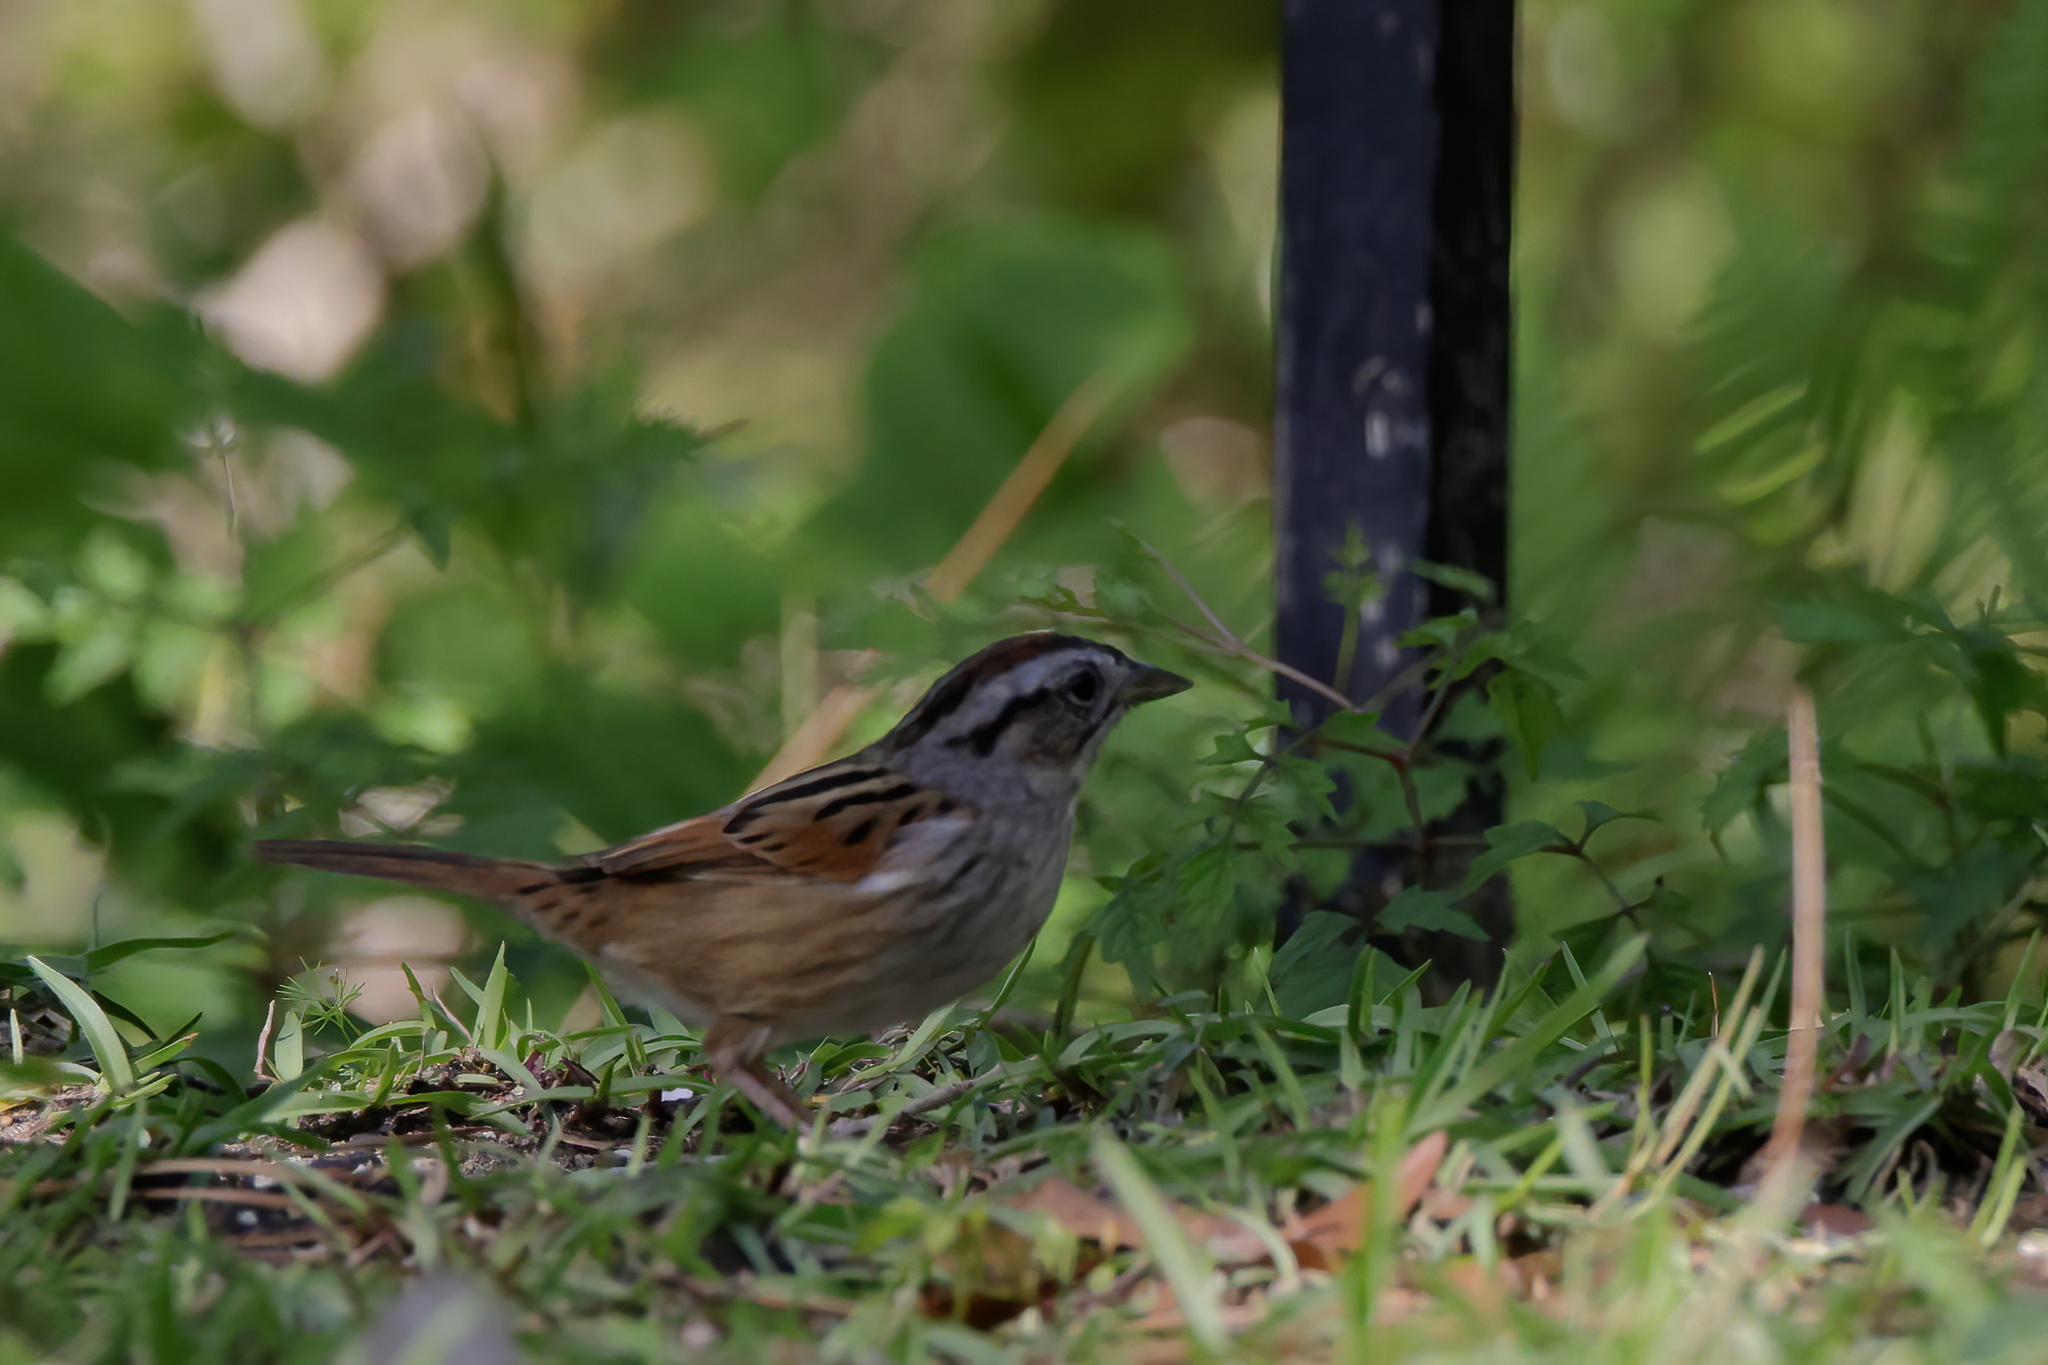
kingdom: Animalia
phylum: Chordata
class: Aves
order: Passeriformes
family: Passerellidae
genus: Melospiza
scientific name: Melospiza georgiana
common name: Swamp sparrow
